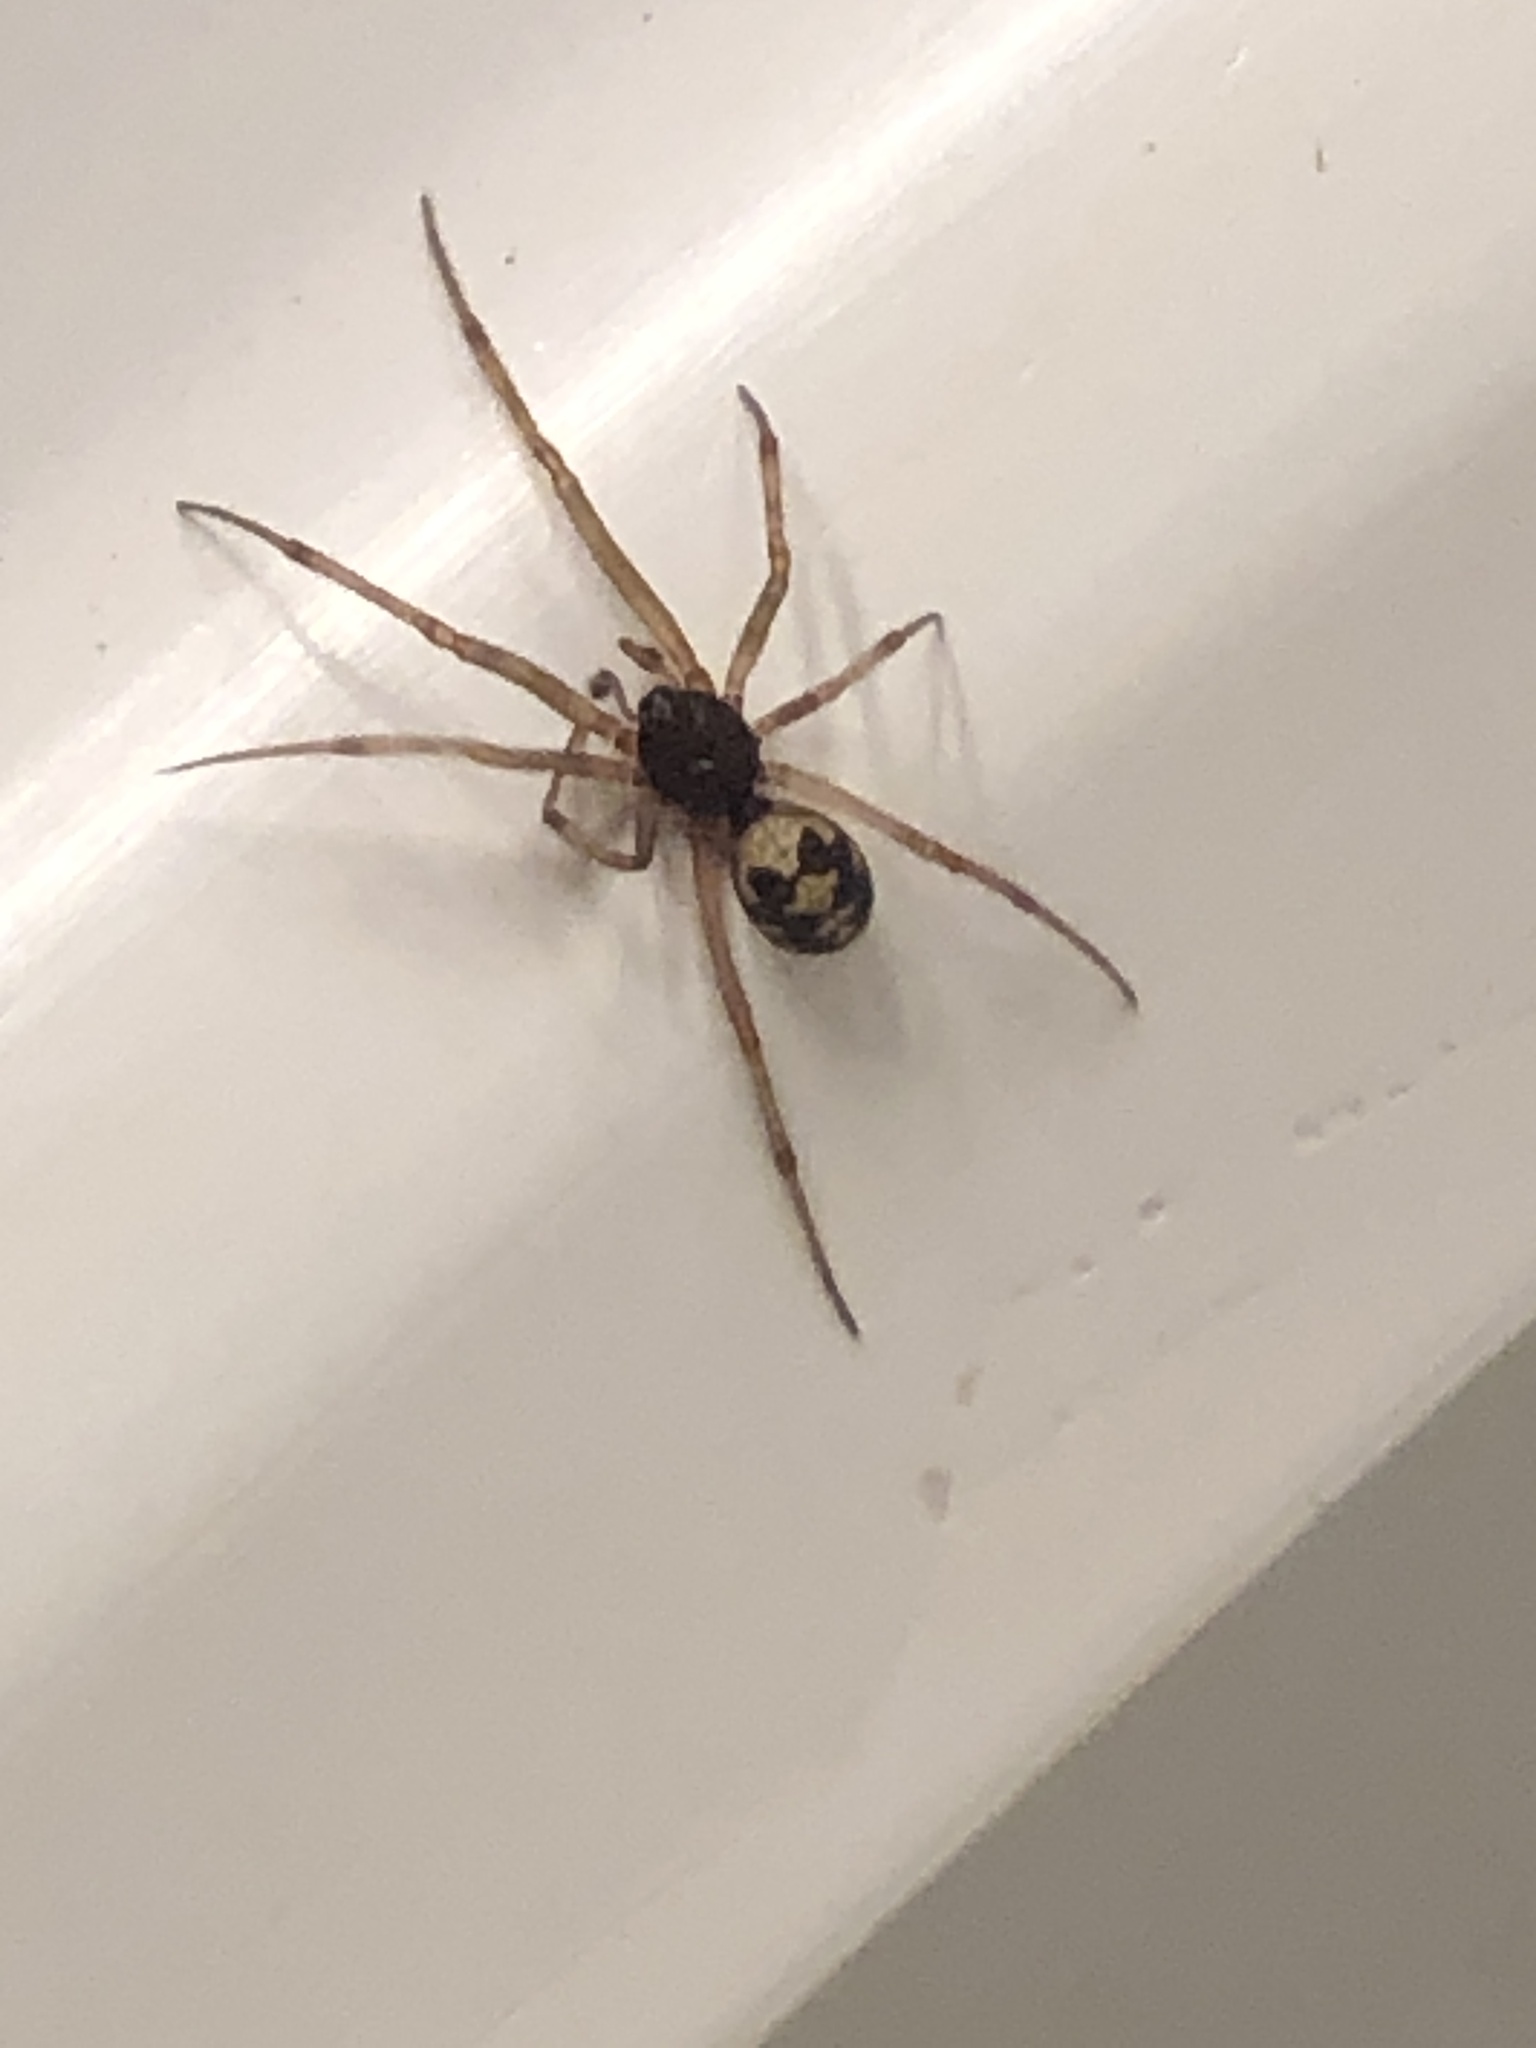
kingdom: Animalia
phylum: Arthropoda
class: Arachnida
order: Araneae
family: Theridiidae
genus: Steatoda
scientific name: Steatoda triangulosa
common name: Triangulate bud spider
